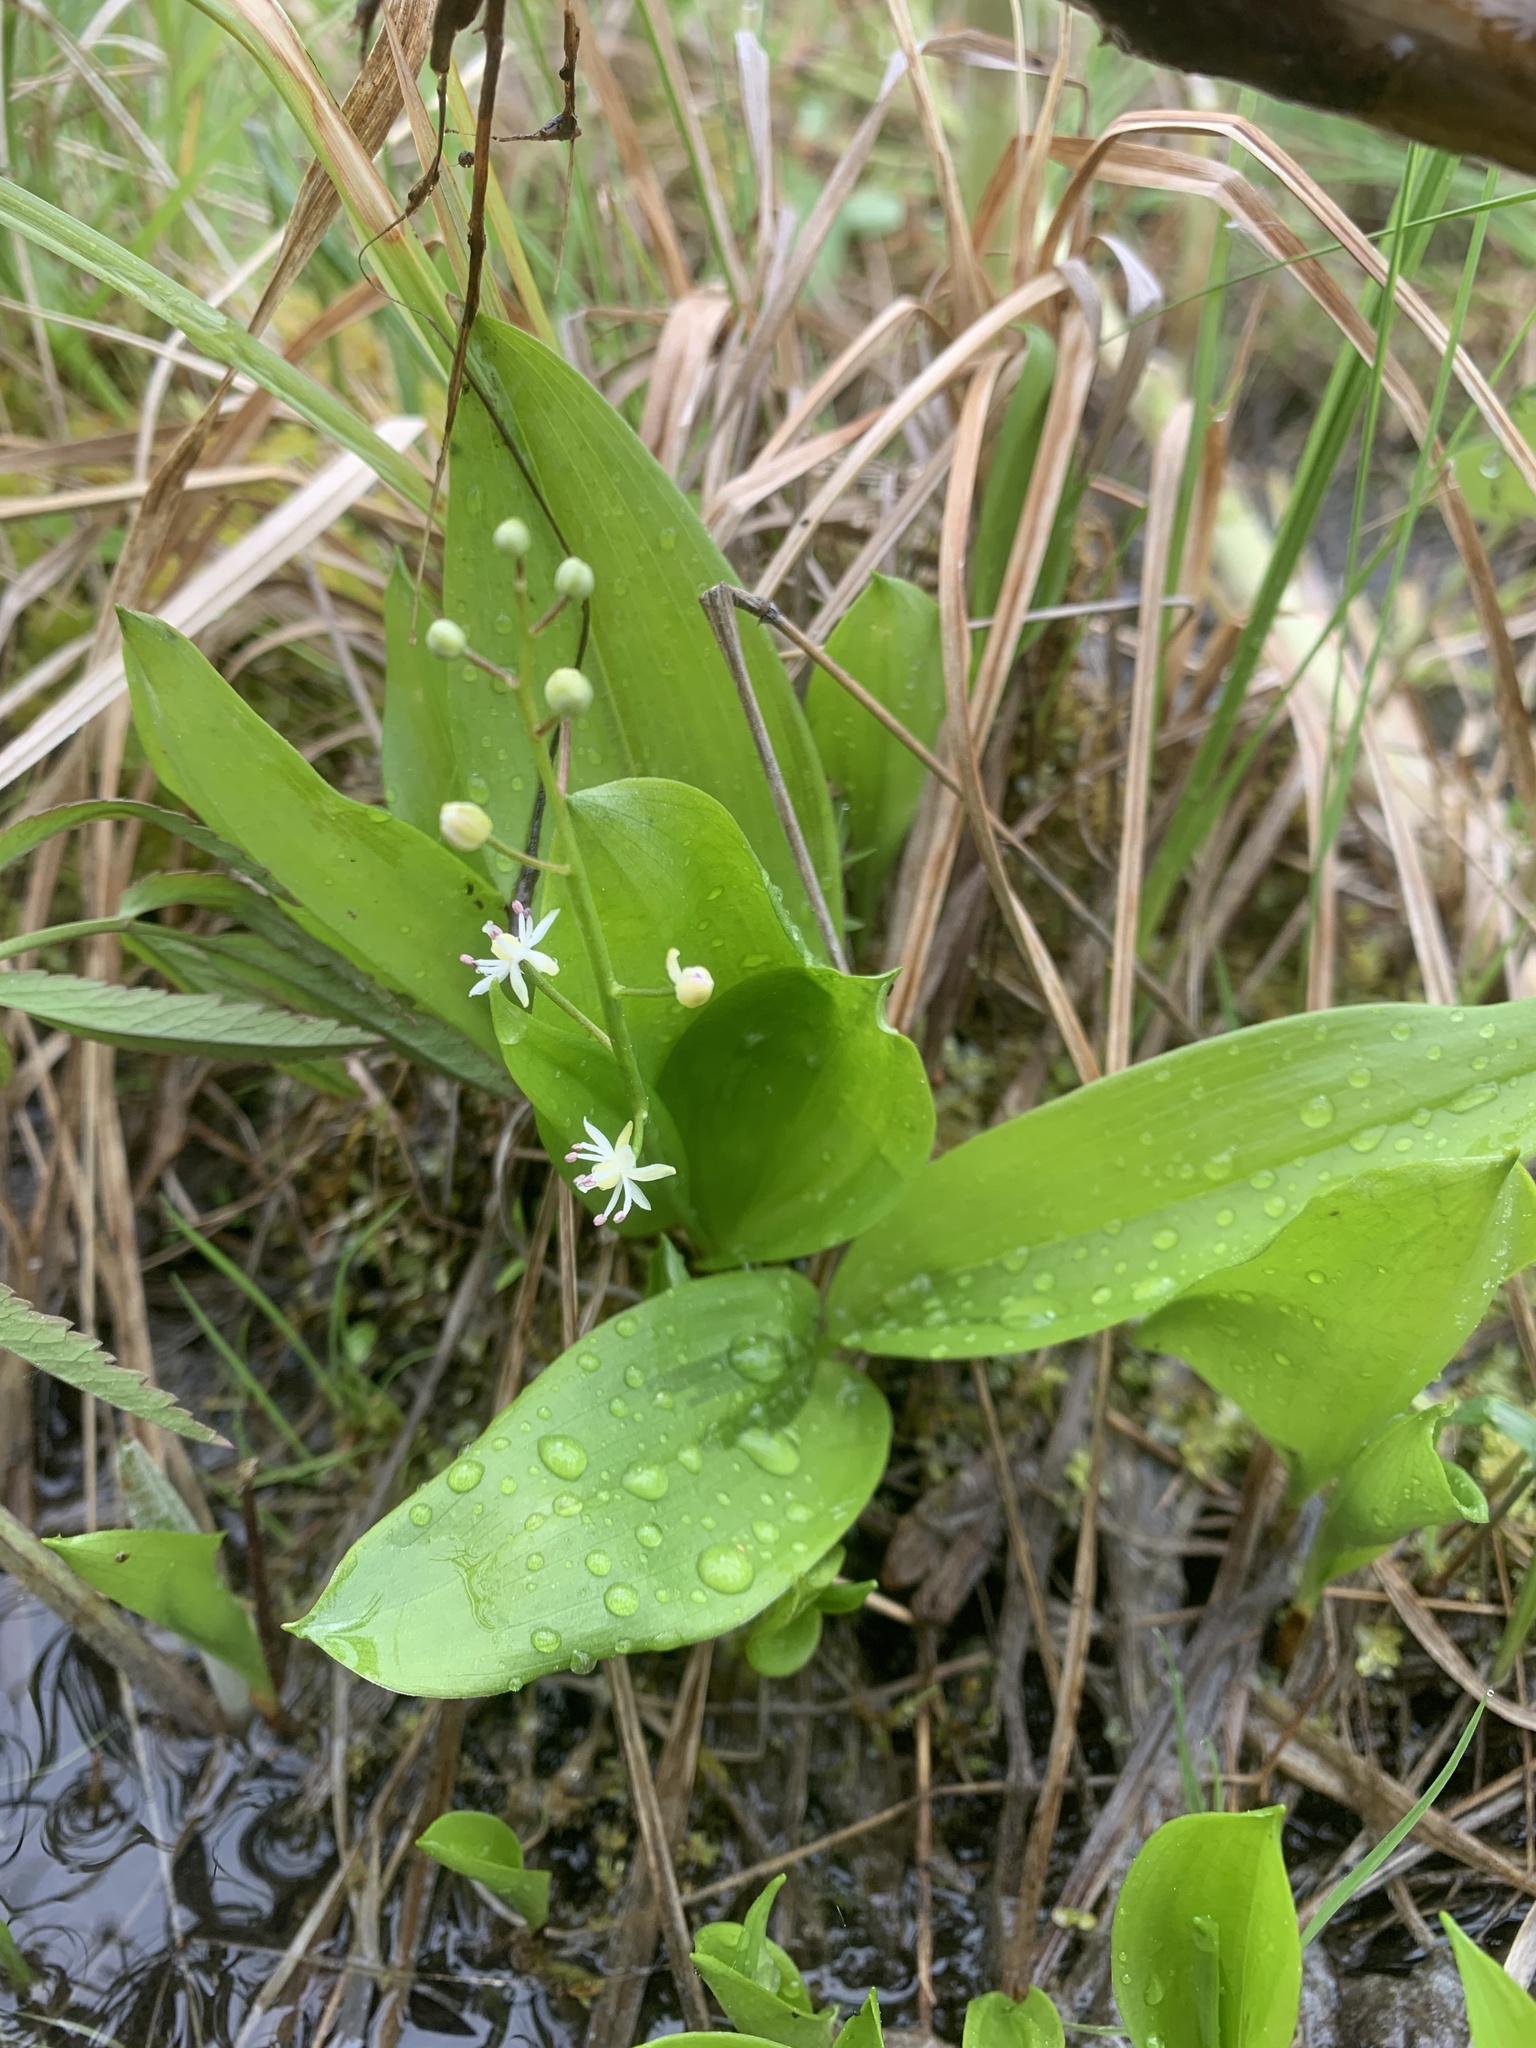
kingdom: Plantae
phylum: Tracheophyta
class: Liliopsida
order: Asparagales
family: Asparagaceae
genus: Maianthemum
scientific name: Maianthemum trifolium
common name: Swamp false solomon's seal
